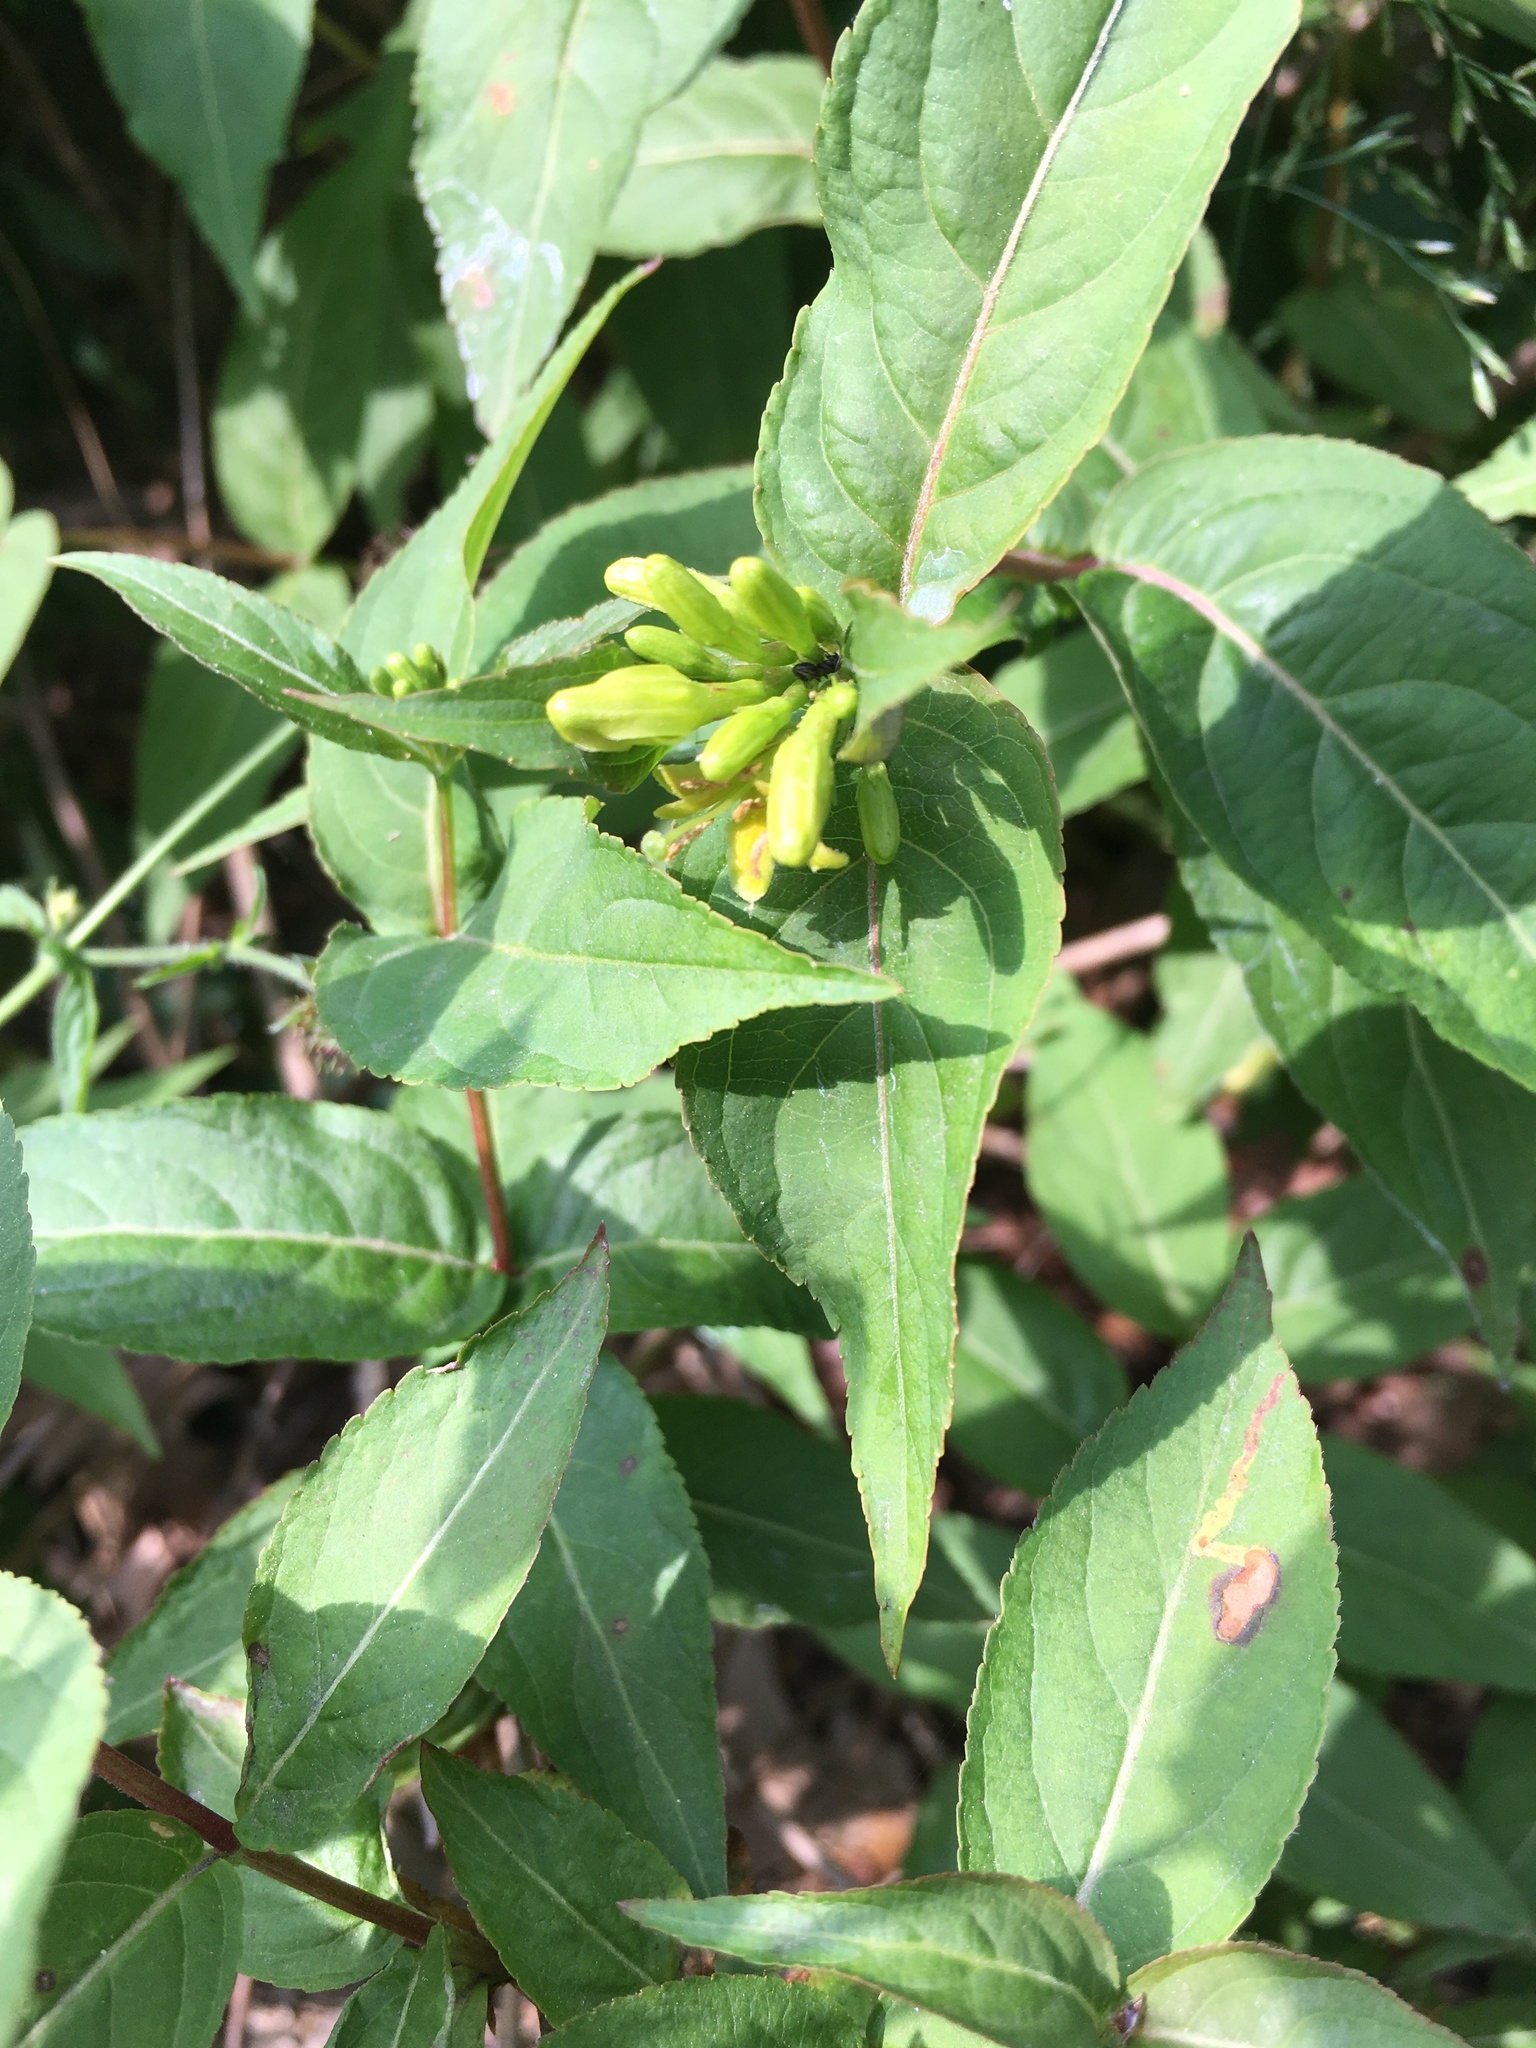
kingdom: Plantae
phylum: Tracheophyta
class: Magnoliopsida
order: Dipsacales
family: Caprifoliaceae
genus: Diervilla
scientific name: Diervilla lonicera
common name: Bush-honeysuckle
